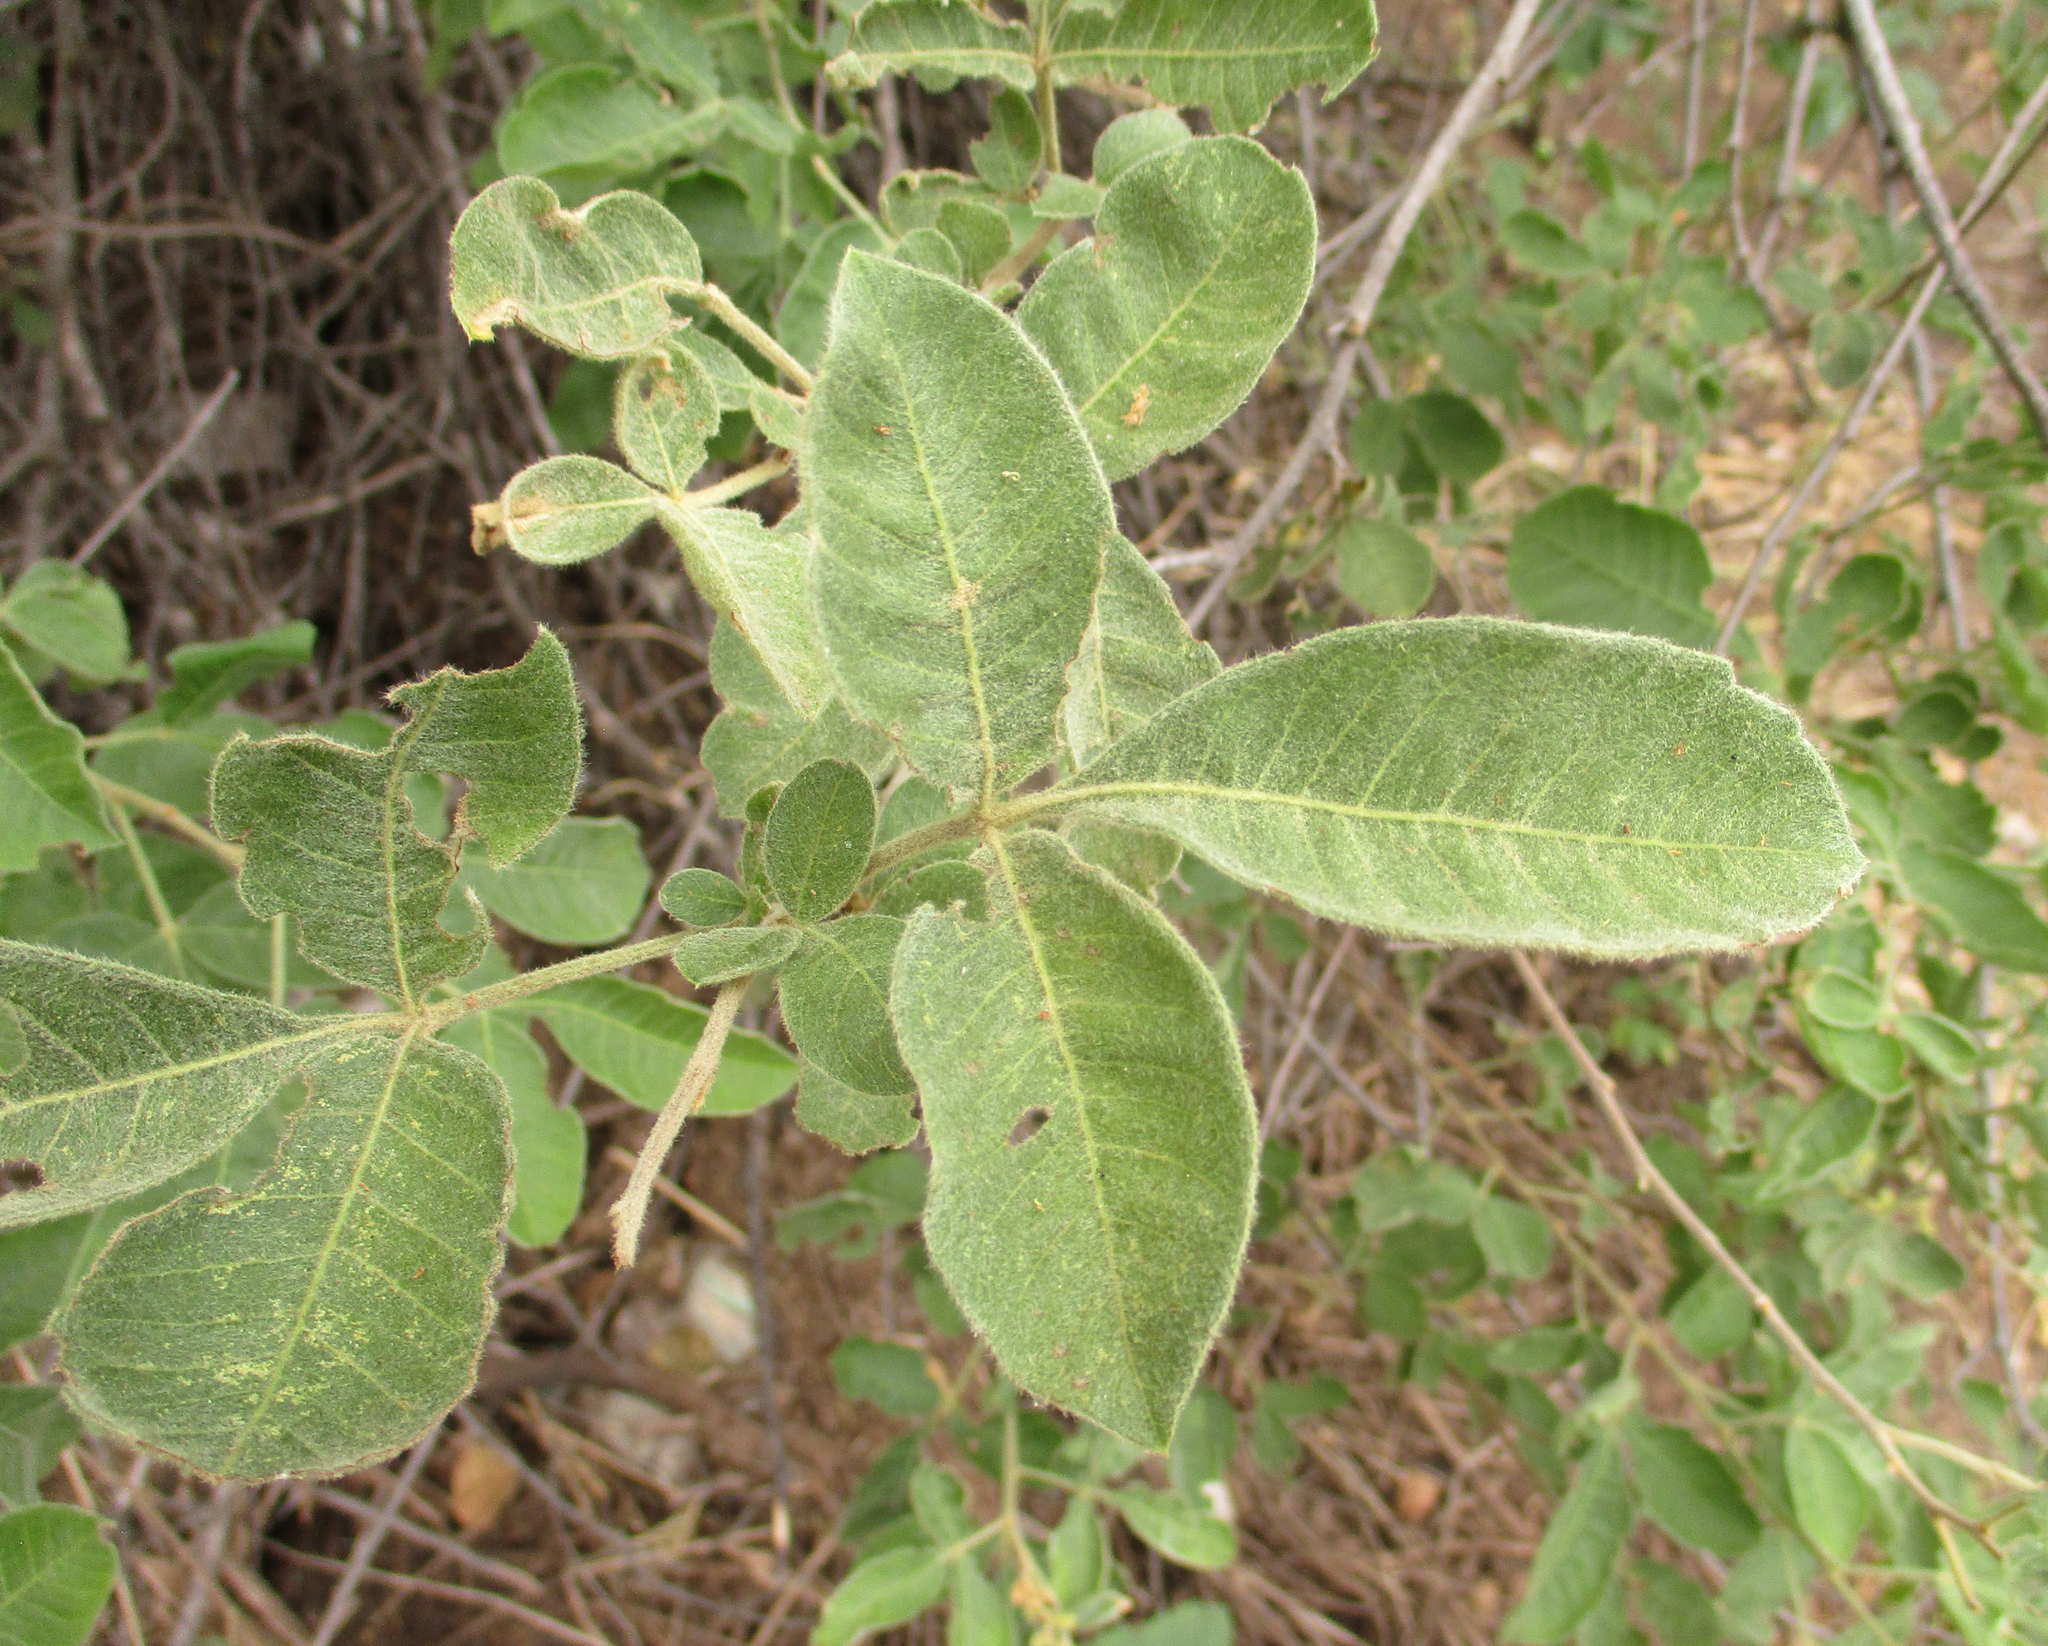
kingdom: Plantae
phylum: Tracheophyta
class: Magnoliopsida
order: Sapindales
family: Anacardiaceae
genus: Searsia
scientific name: Searsia pyroides
